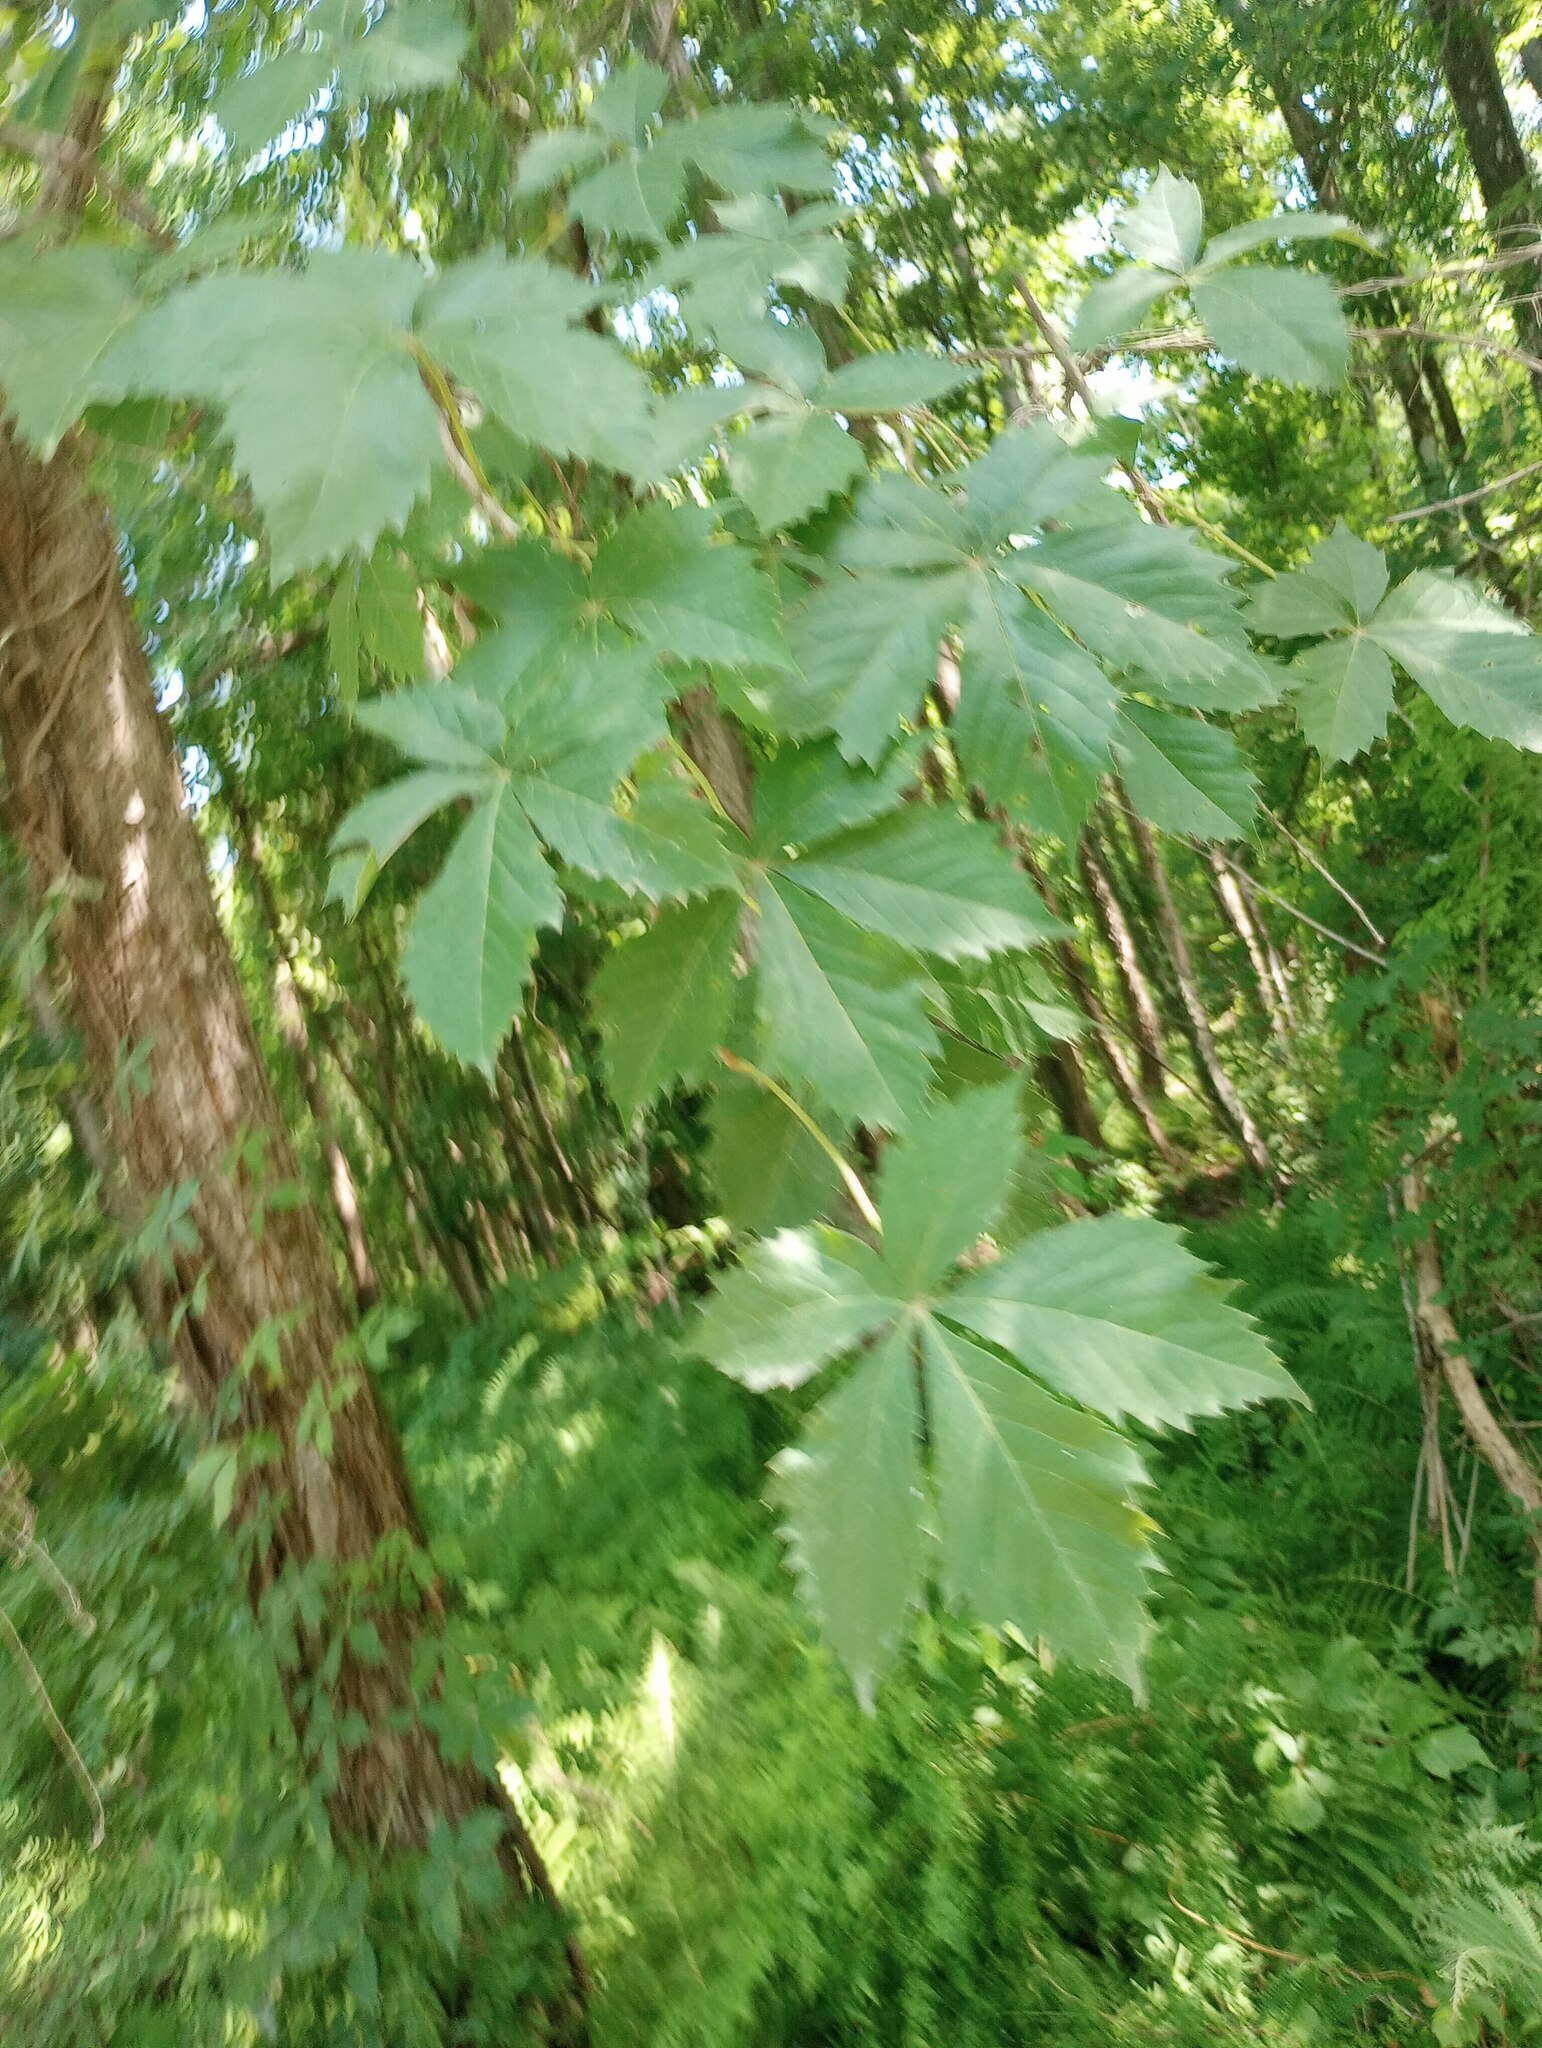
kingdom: Plantae
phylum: Tracheophyta
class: Magnoliopsida
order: Vitales
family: Vitaceae
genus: Parthenocissus
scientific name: Parthenocissus quinquefolia
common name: Virginia-creeper
